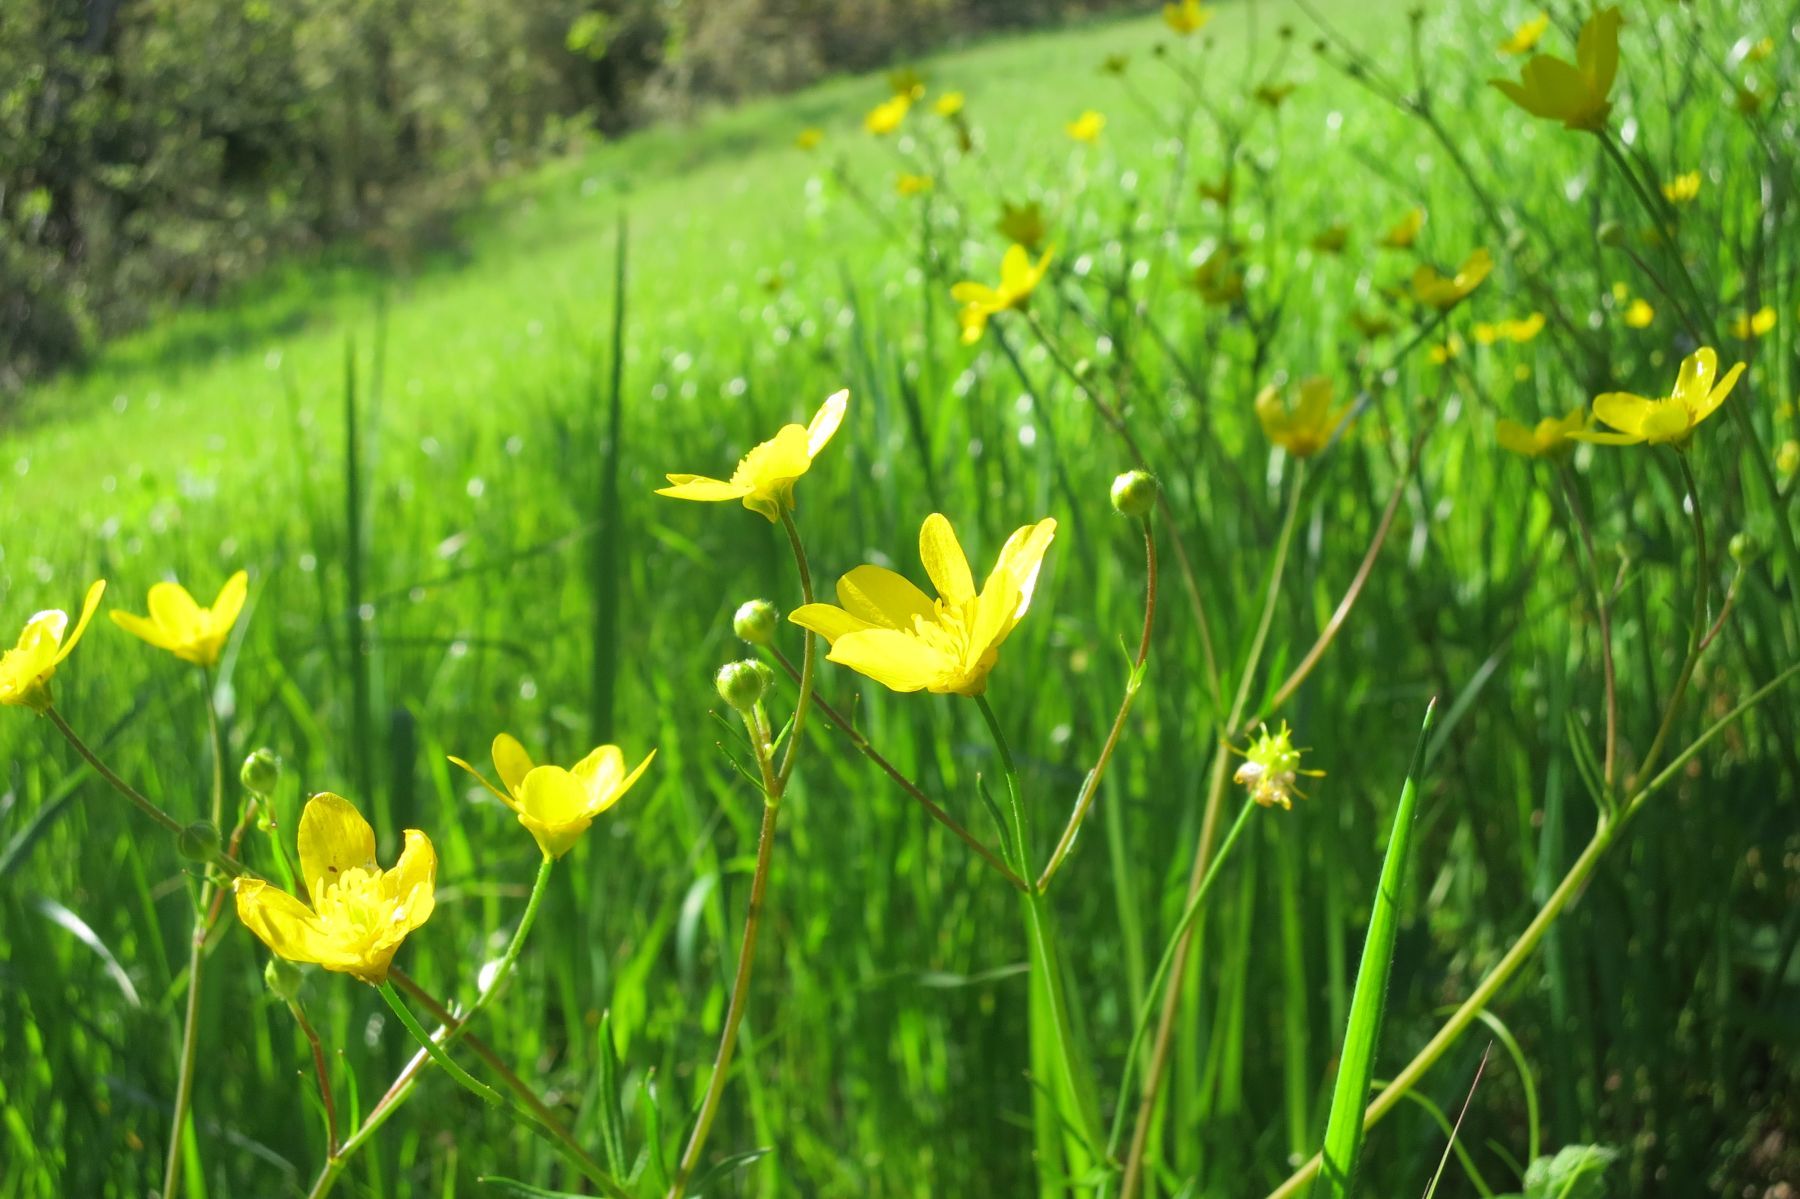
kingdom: Plantae
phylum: Tracheophyta
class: Magnoliopsida
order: Ranunculales
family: Ranunculaceae
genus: Ranunculus
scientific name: Ranunculus occidentalis
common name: Western buttercup
